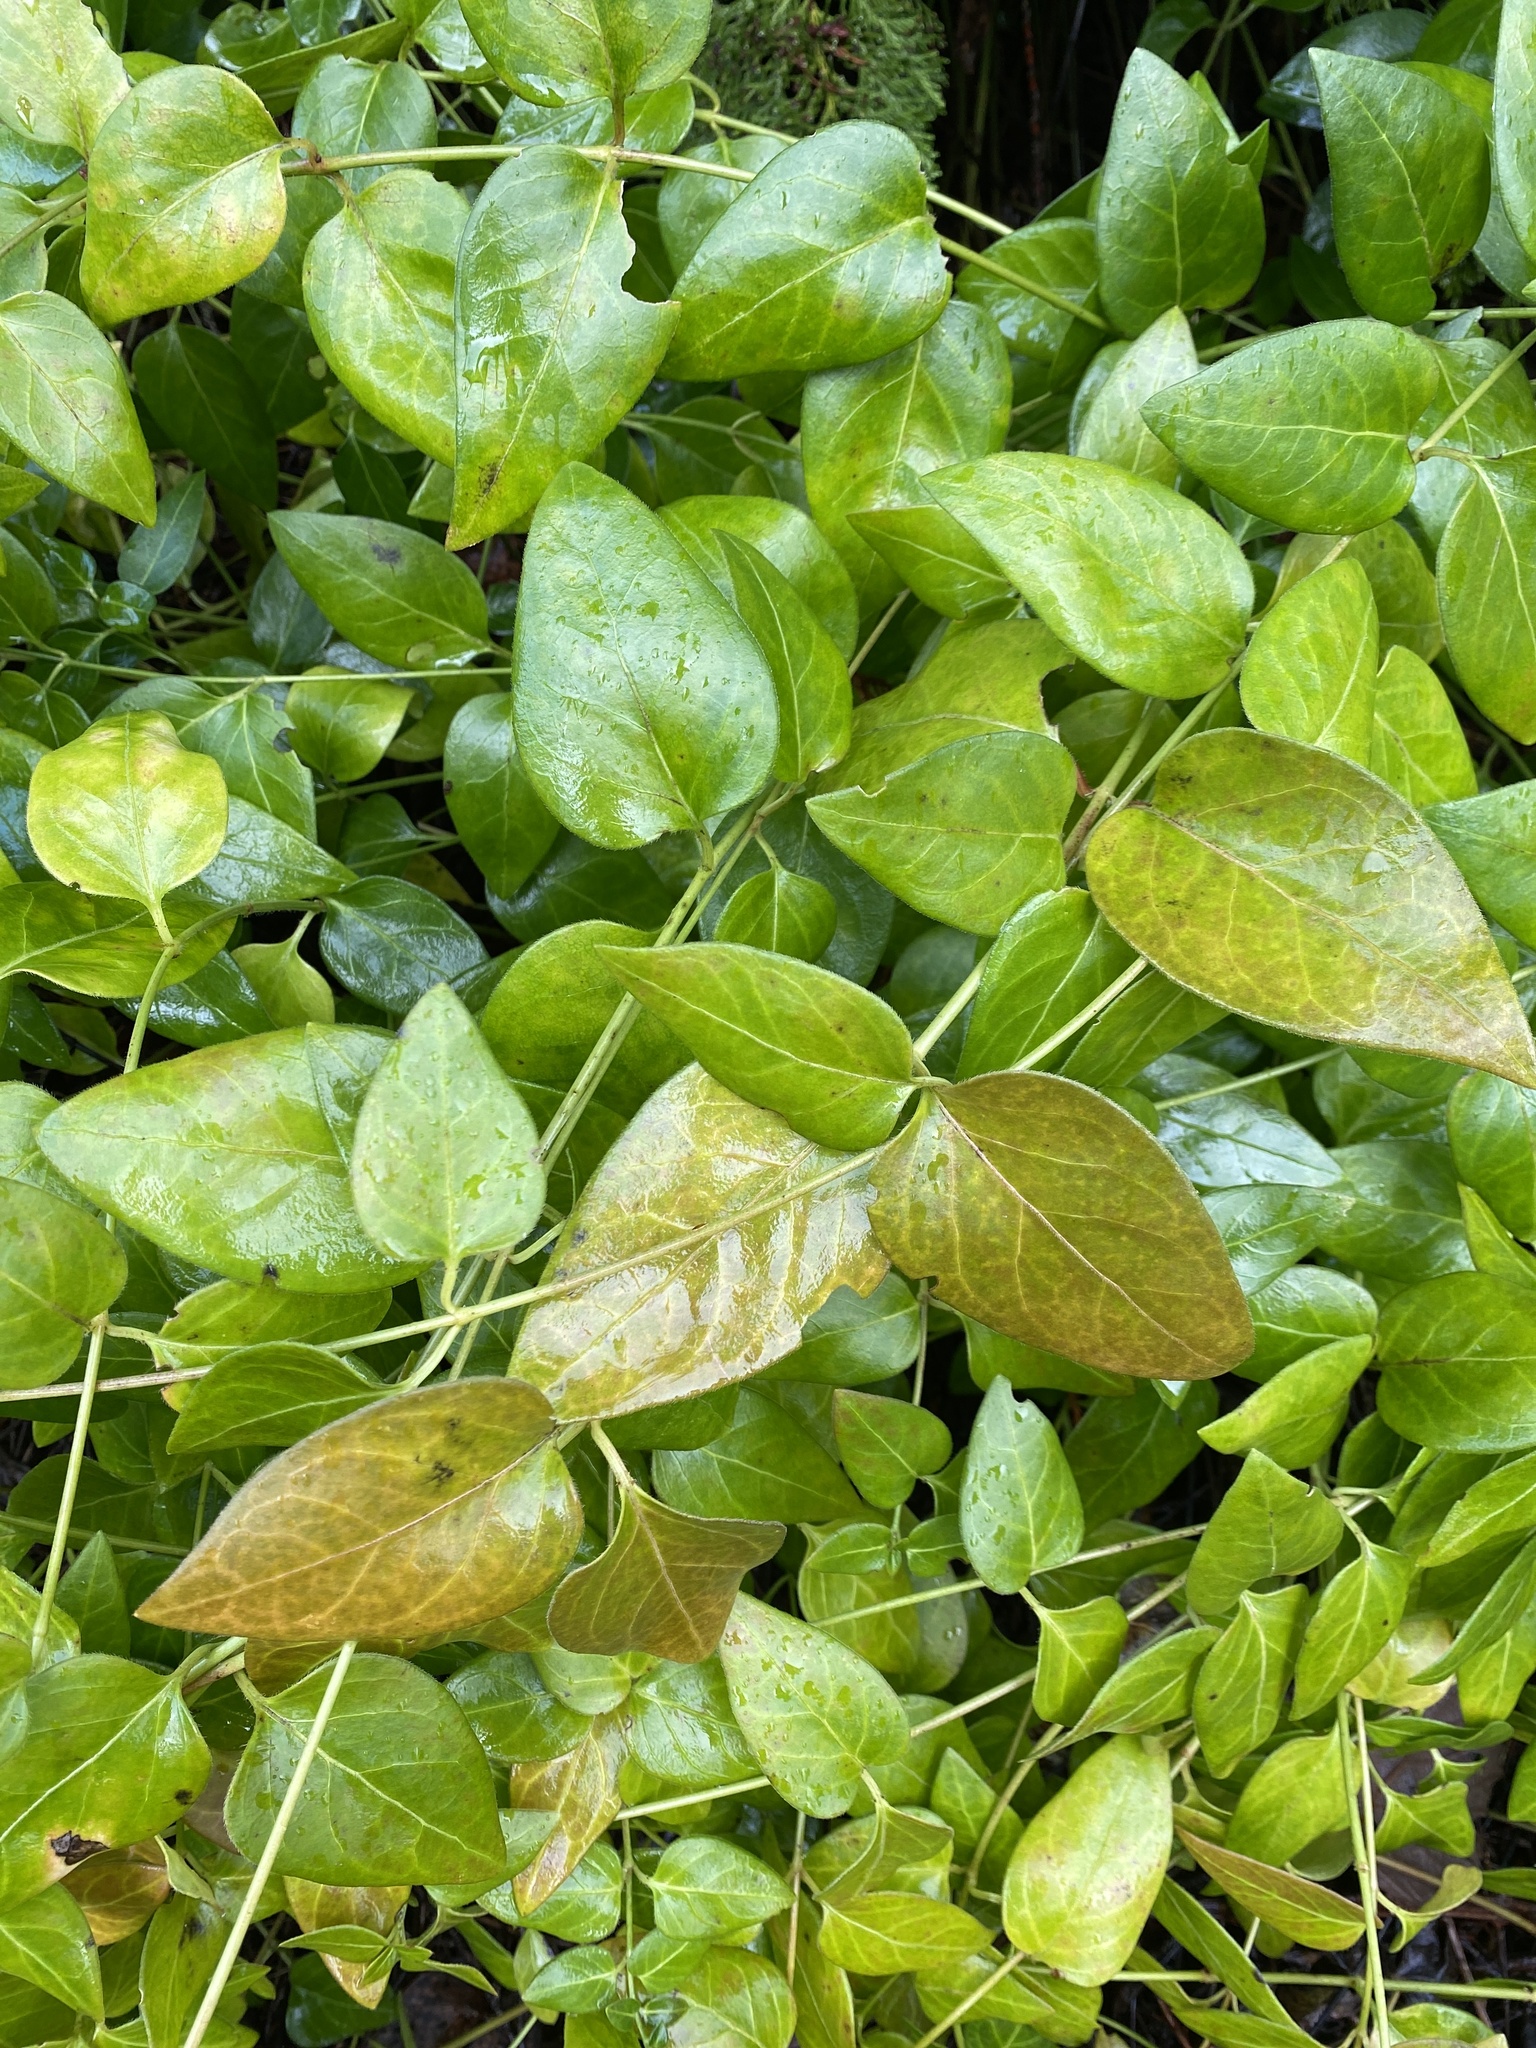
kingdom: Plantae
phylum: Tracheophyta
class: Magnoliopsida
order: Gentianales
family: Apocynaceae
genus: Vinca
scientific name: Vinca major
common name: Greater periwinkle
